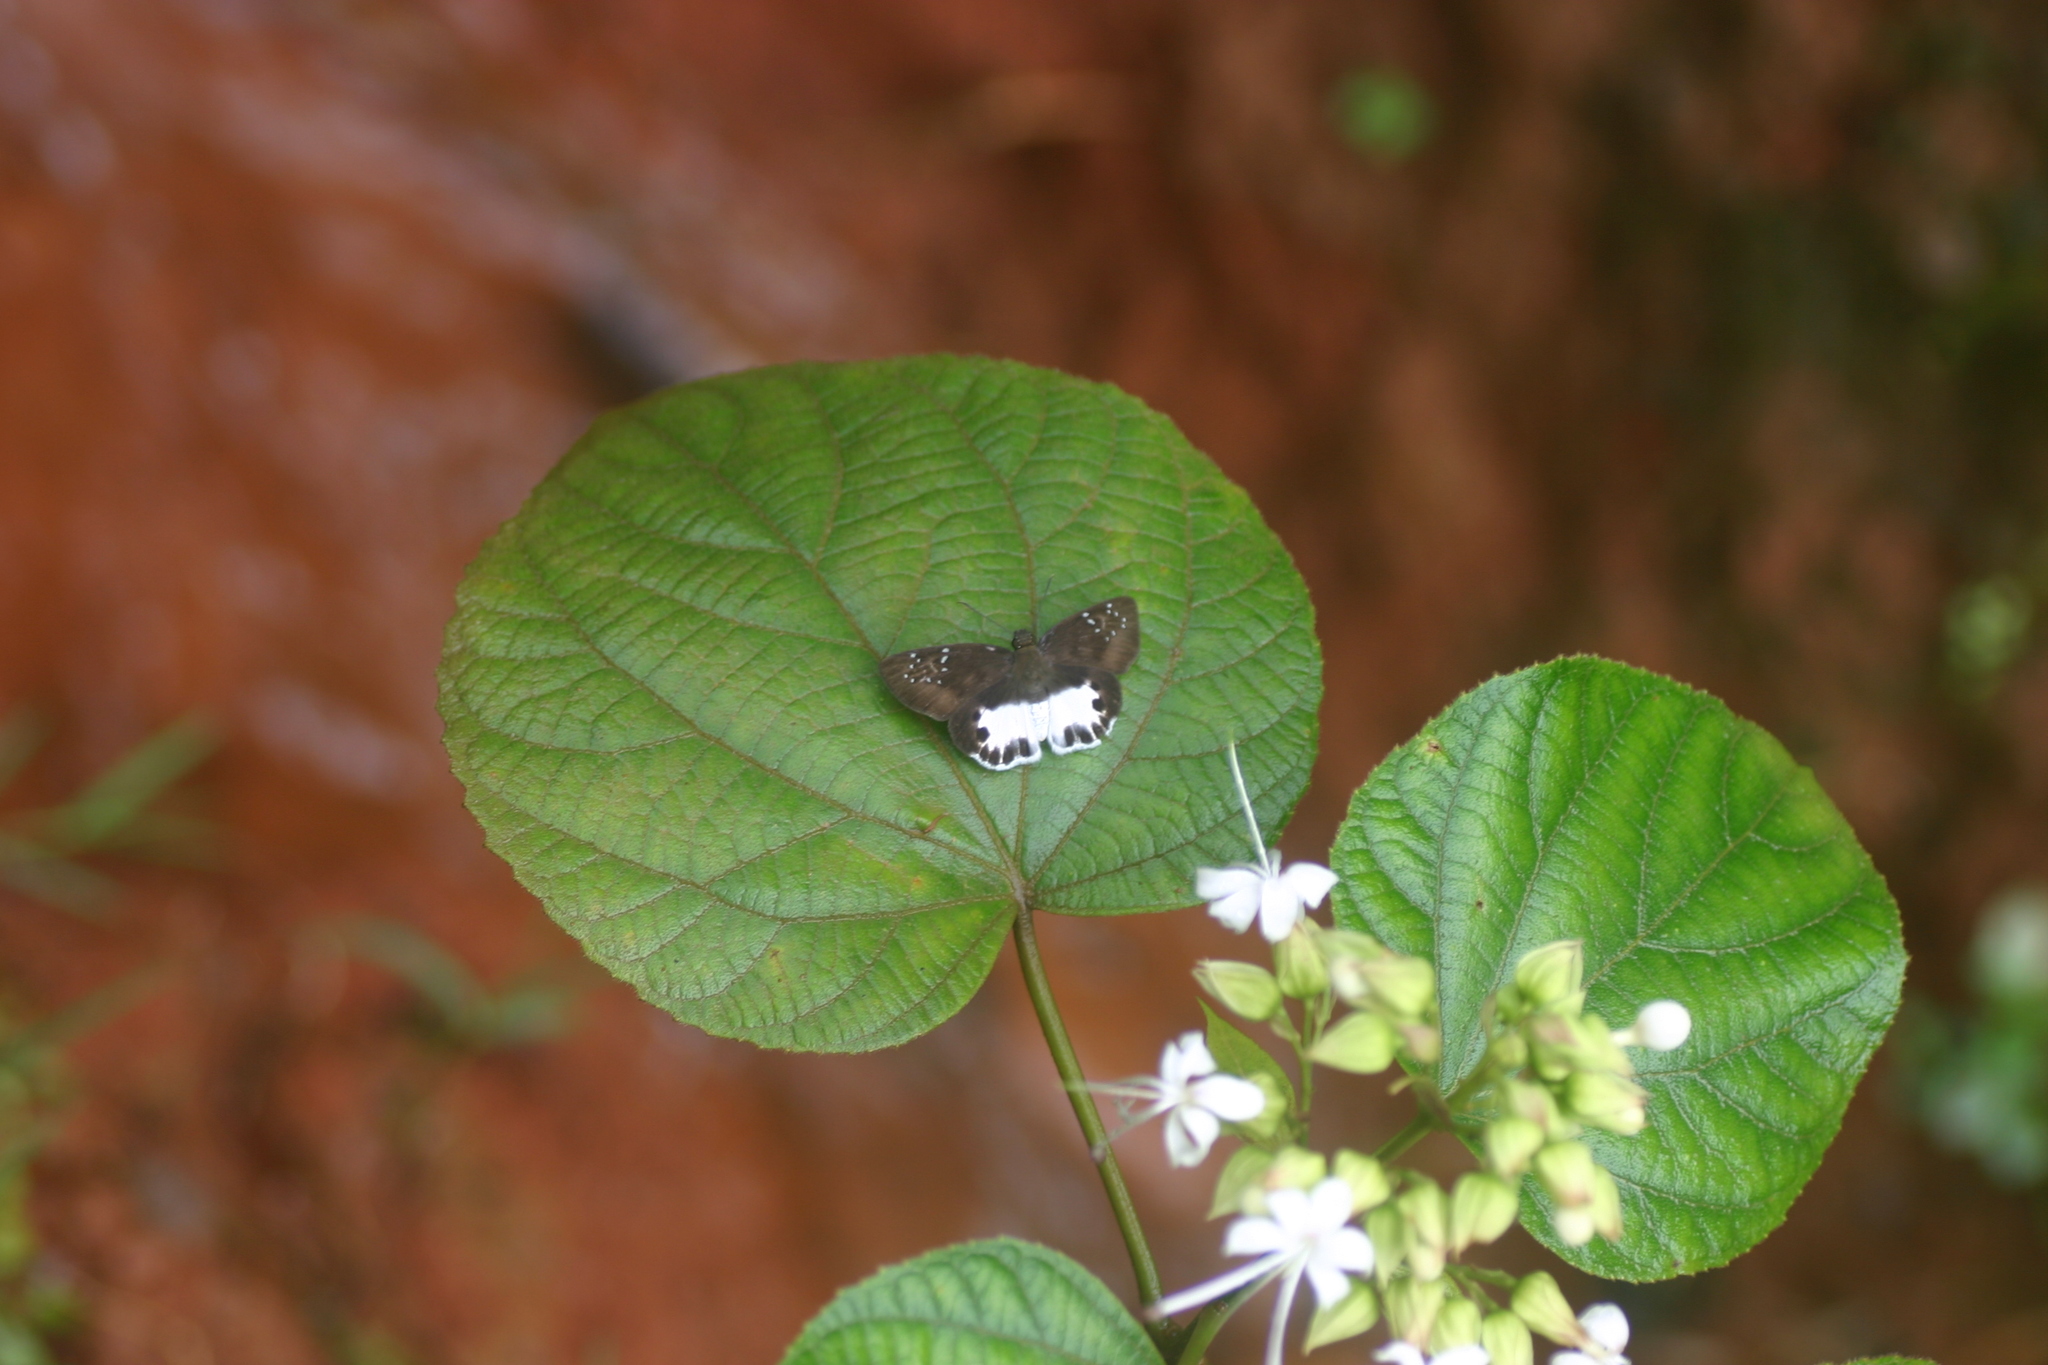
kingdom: Animalia
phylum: Arthropoda
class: Insecta
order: Lepidoptera
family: Hesperiidae
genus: Tagiades
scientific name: Tagiades litigiosa
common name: Water snow flat
